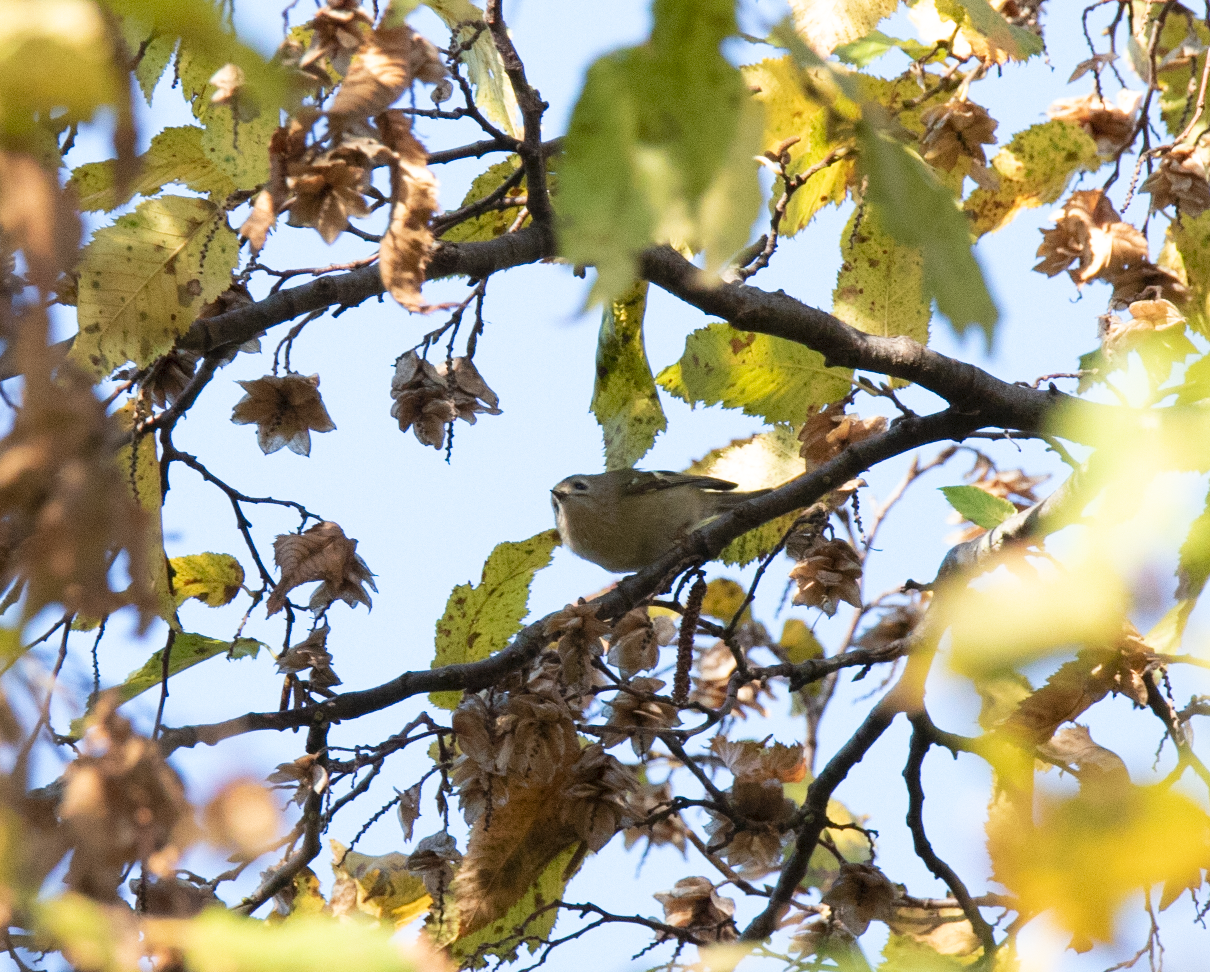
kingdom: Animalia
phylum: Chordata
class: Aves
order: Passeriformes
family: Regulidae
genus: Regulus
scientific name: Regulus regulus
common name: Goldcrest
